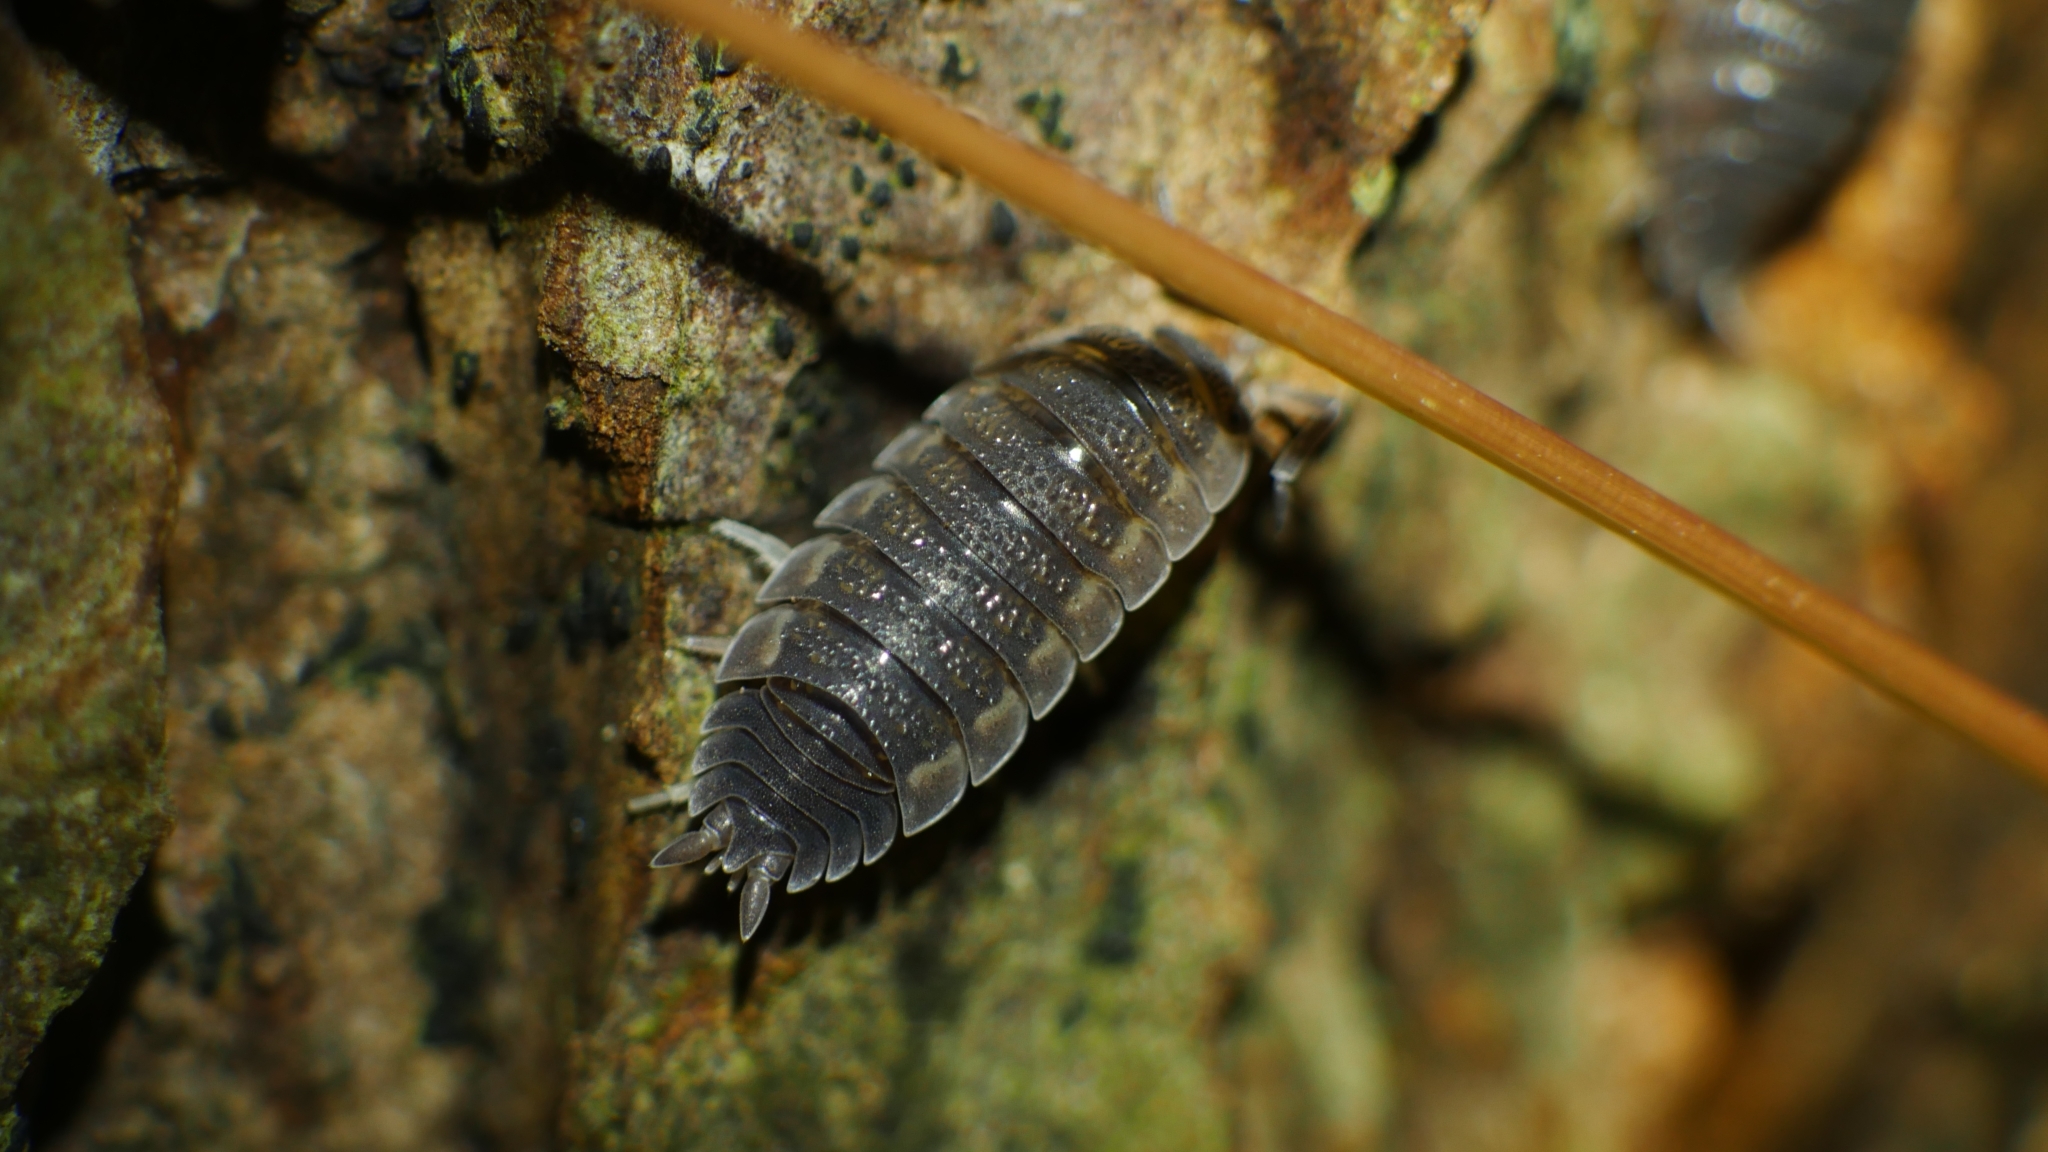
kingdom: Animalia
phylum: Arthropoda
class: Malacostraca
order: Isopoda
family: Porcellionidae
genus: Porcellio
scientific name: Porcellio scaber
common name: Common rough woodlouse
